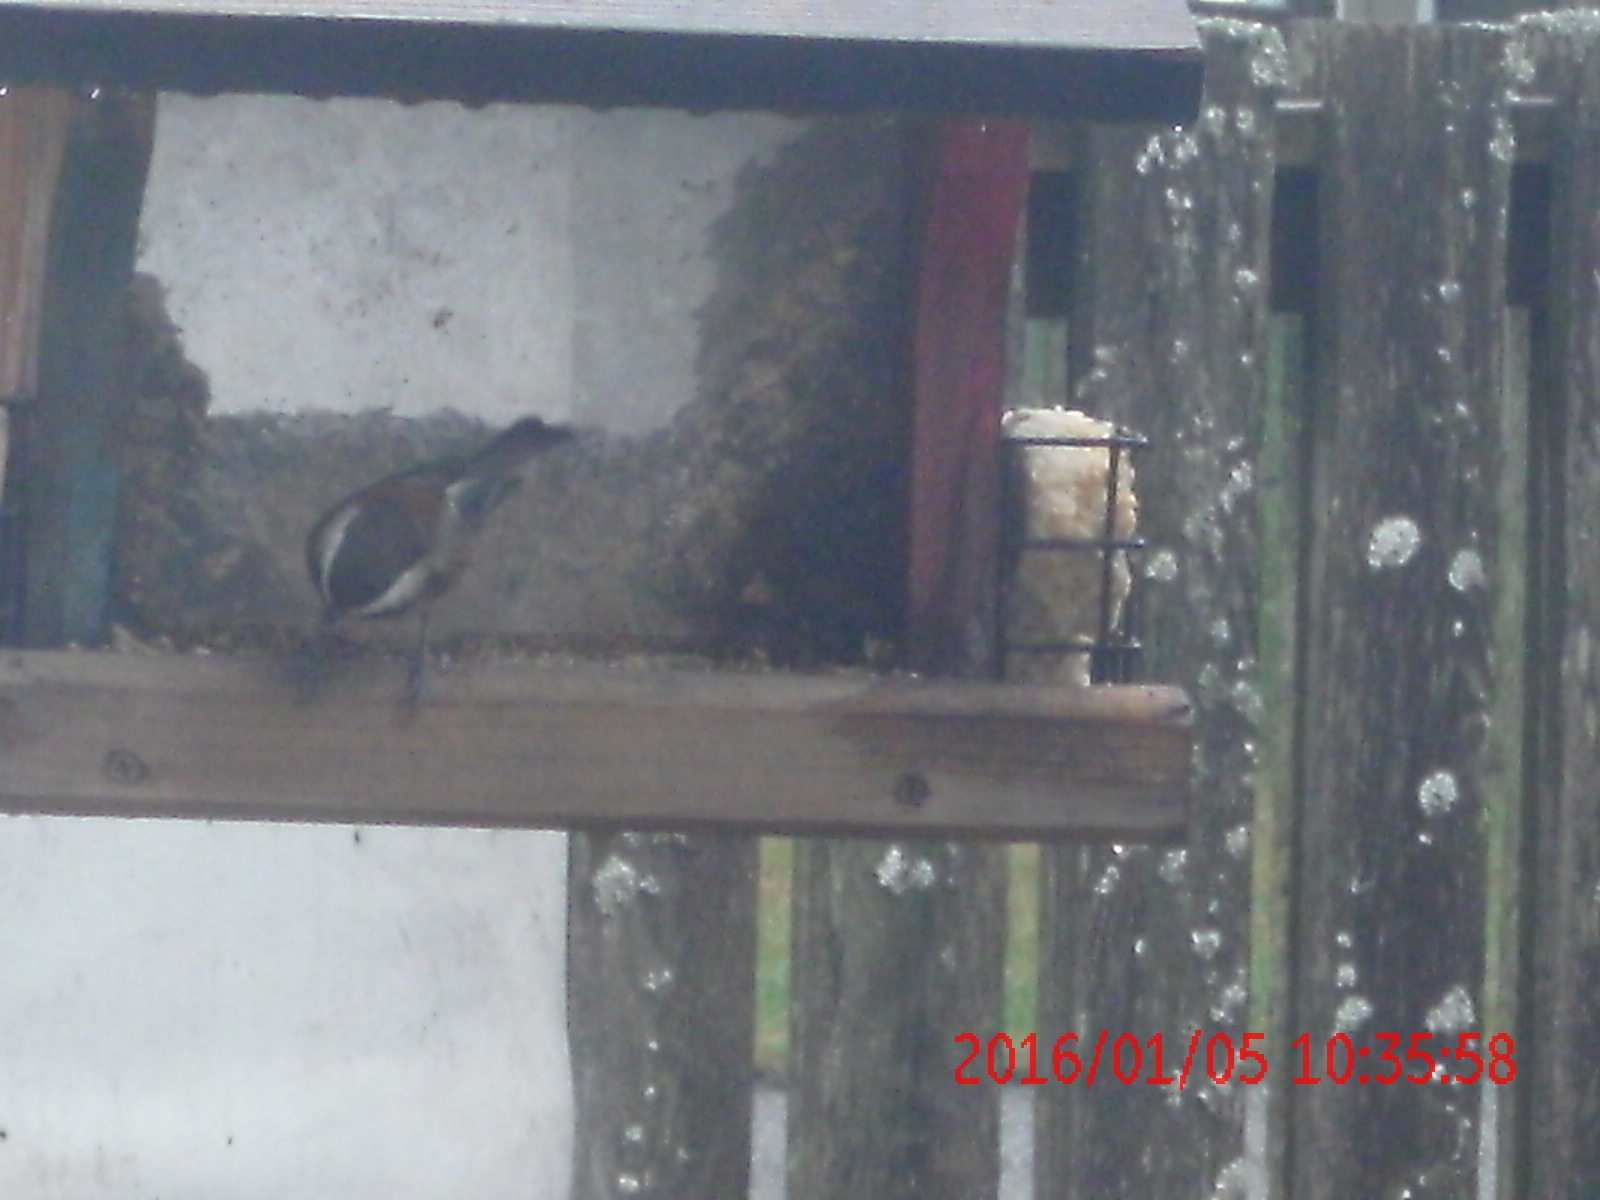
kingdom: Animalia
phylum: Chordata
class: Aves
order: Passeriformes
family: Paridae
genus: Poecile
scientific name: Poecile rufescens
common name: Chestnut-backed chickadee
